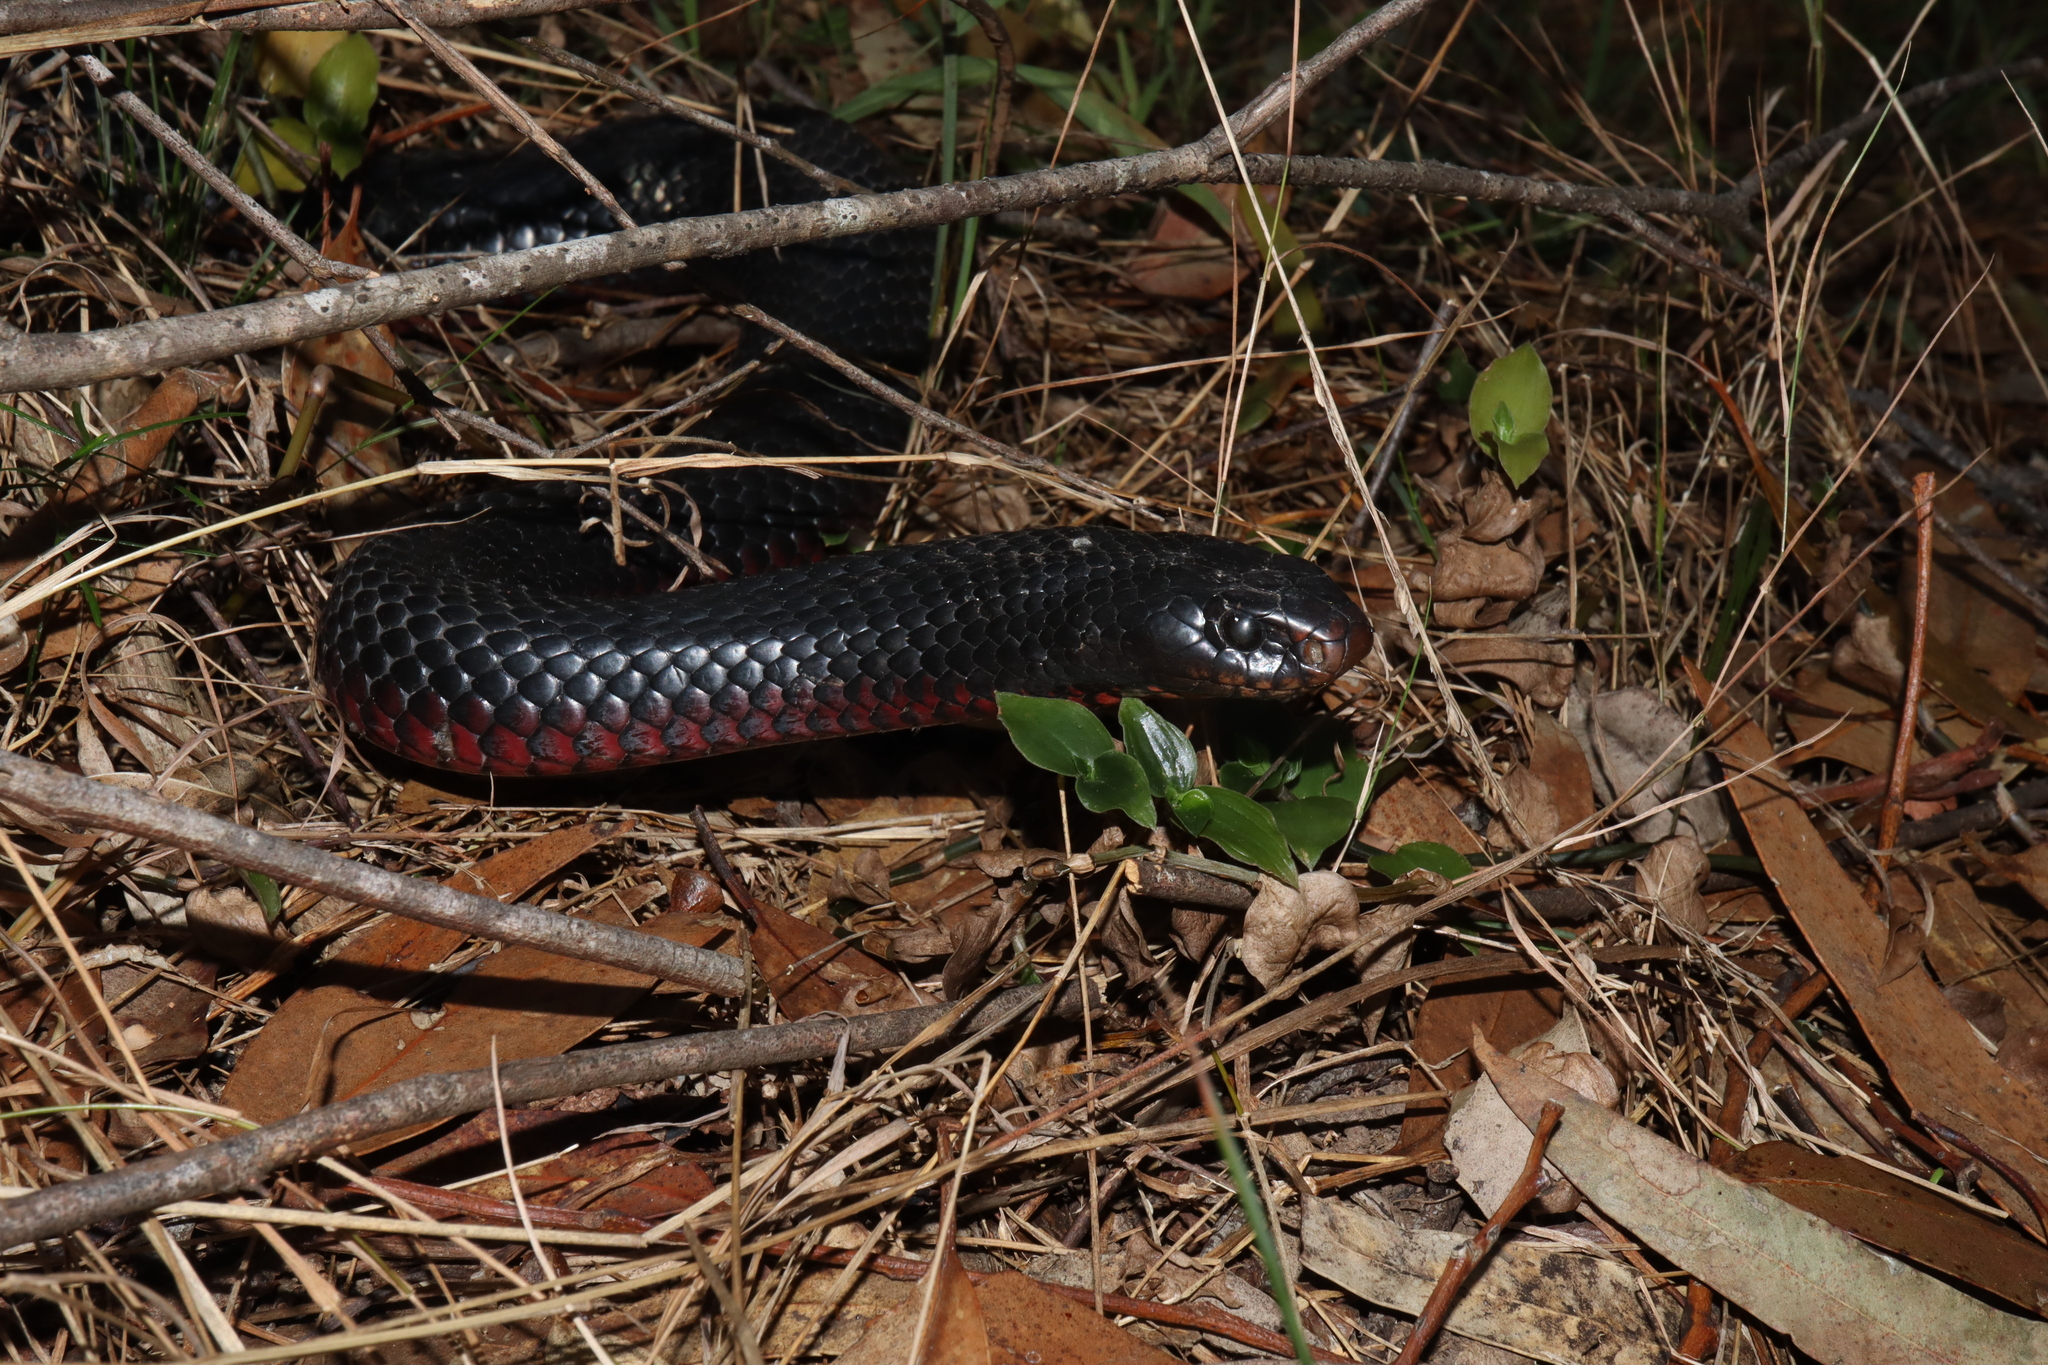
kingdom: Animalia
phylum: Chordata
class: Squamata
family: Elapidae
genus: Pseudechis
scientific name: Pseudechis porphyriacus
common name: Australian black snake
